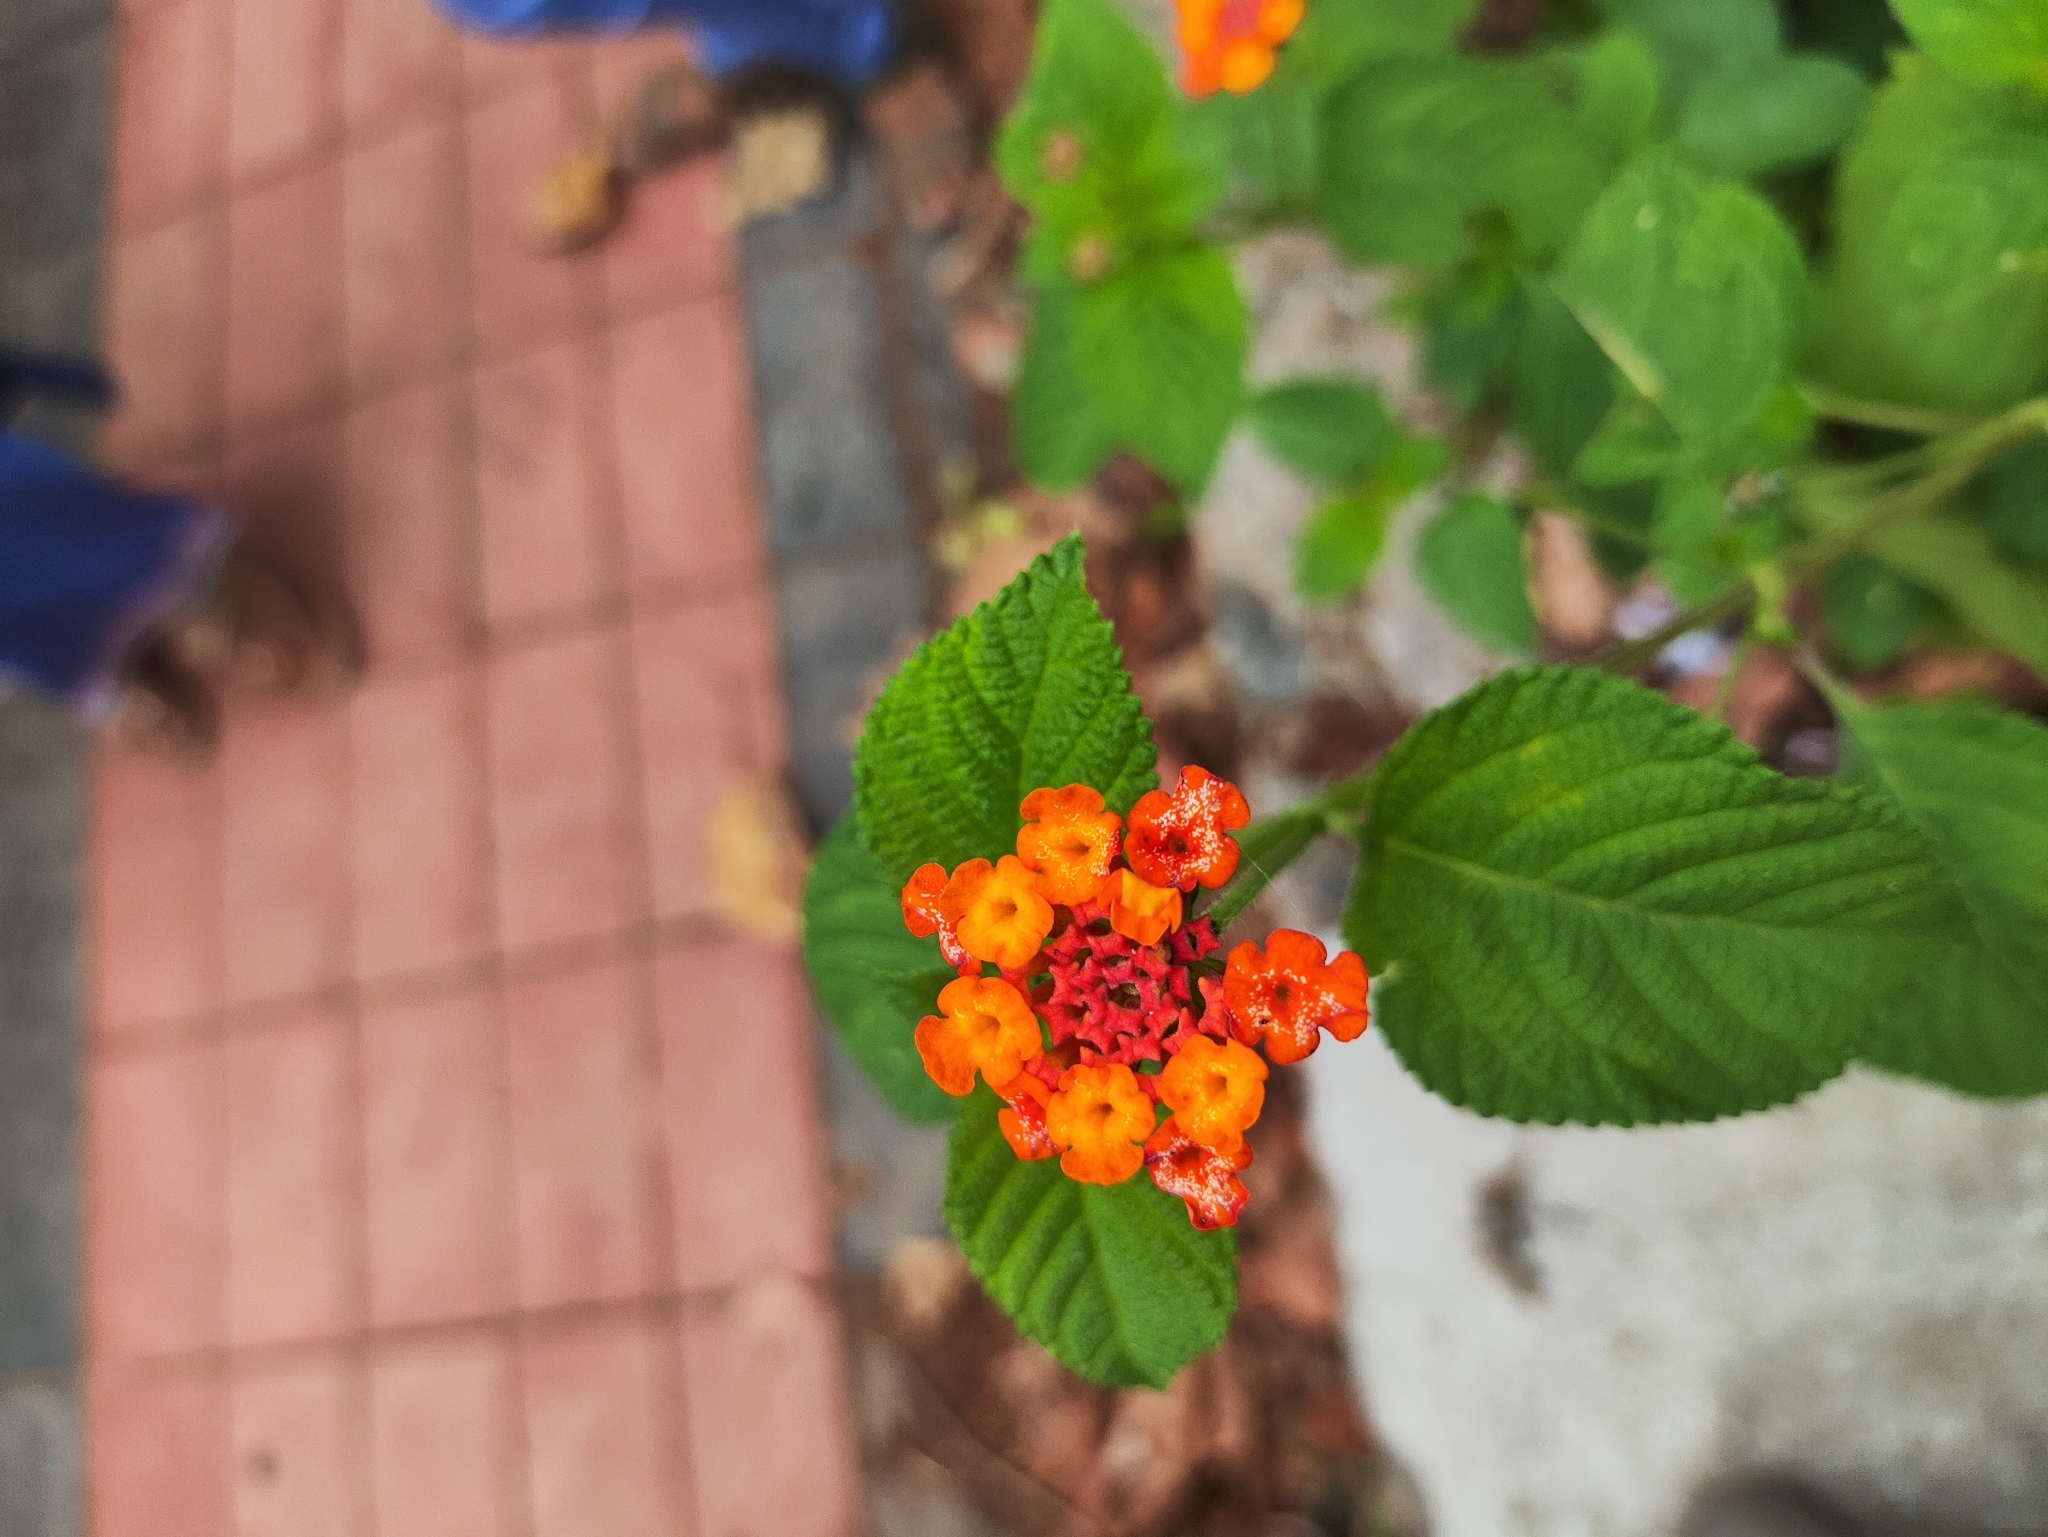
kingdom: Plantae
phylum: Tracheophyta
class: Magnoliopsida
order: Lamiales
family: Verbenaceae
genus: Lantana
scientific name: Lantana camara
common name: Lantana
